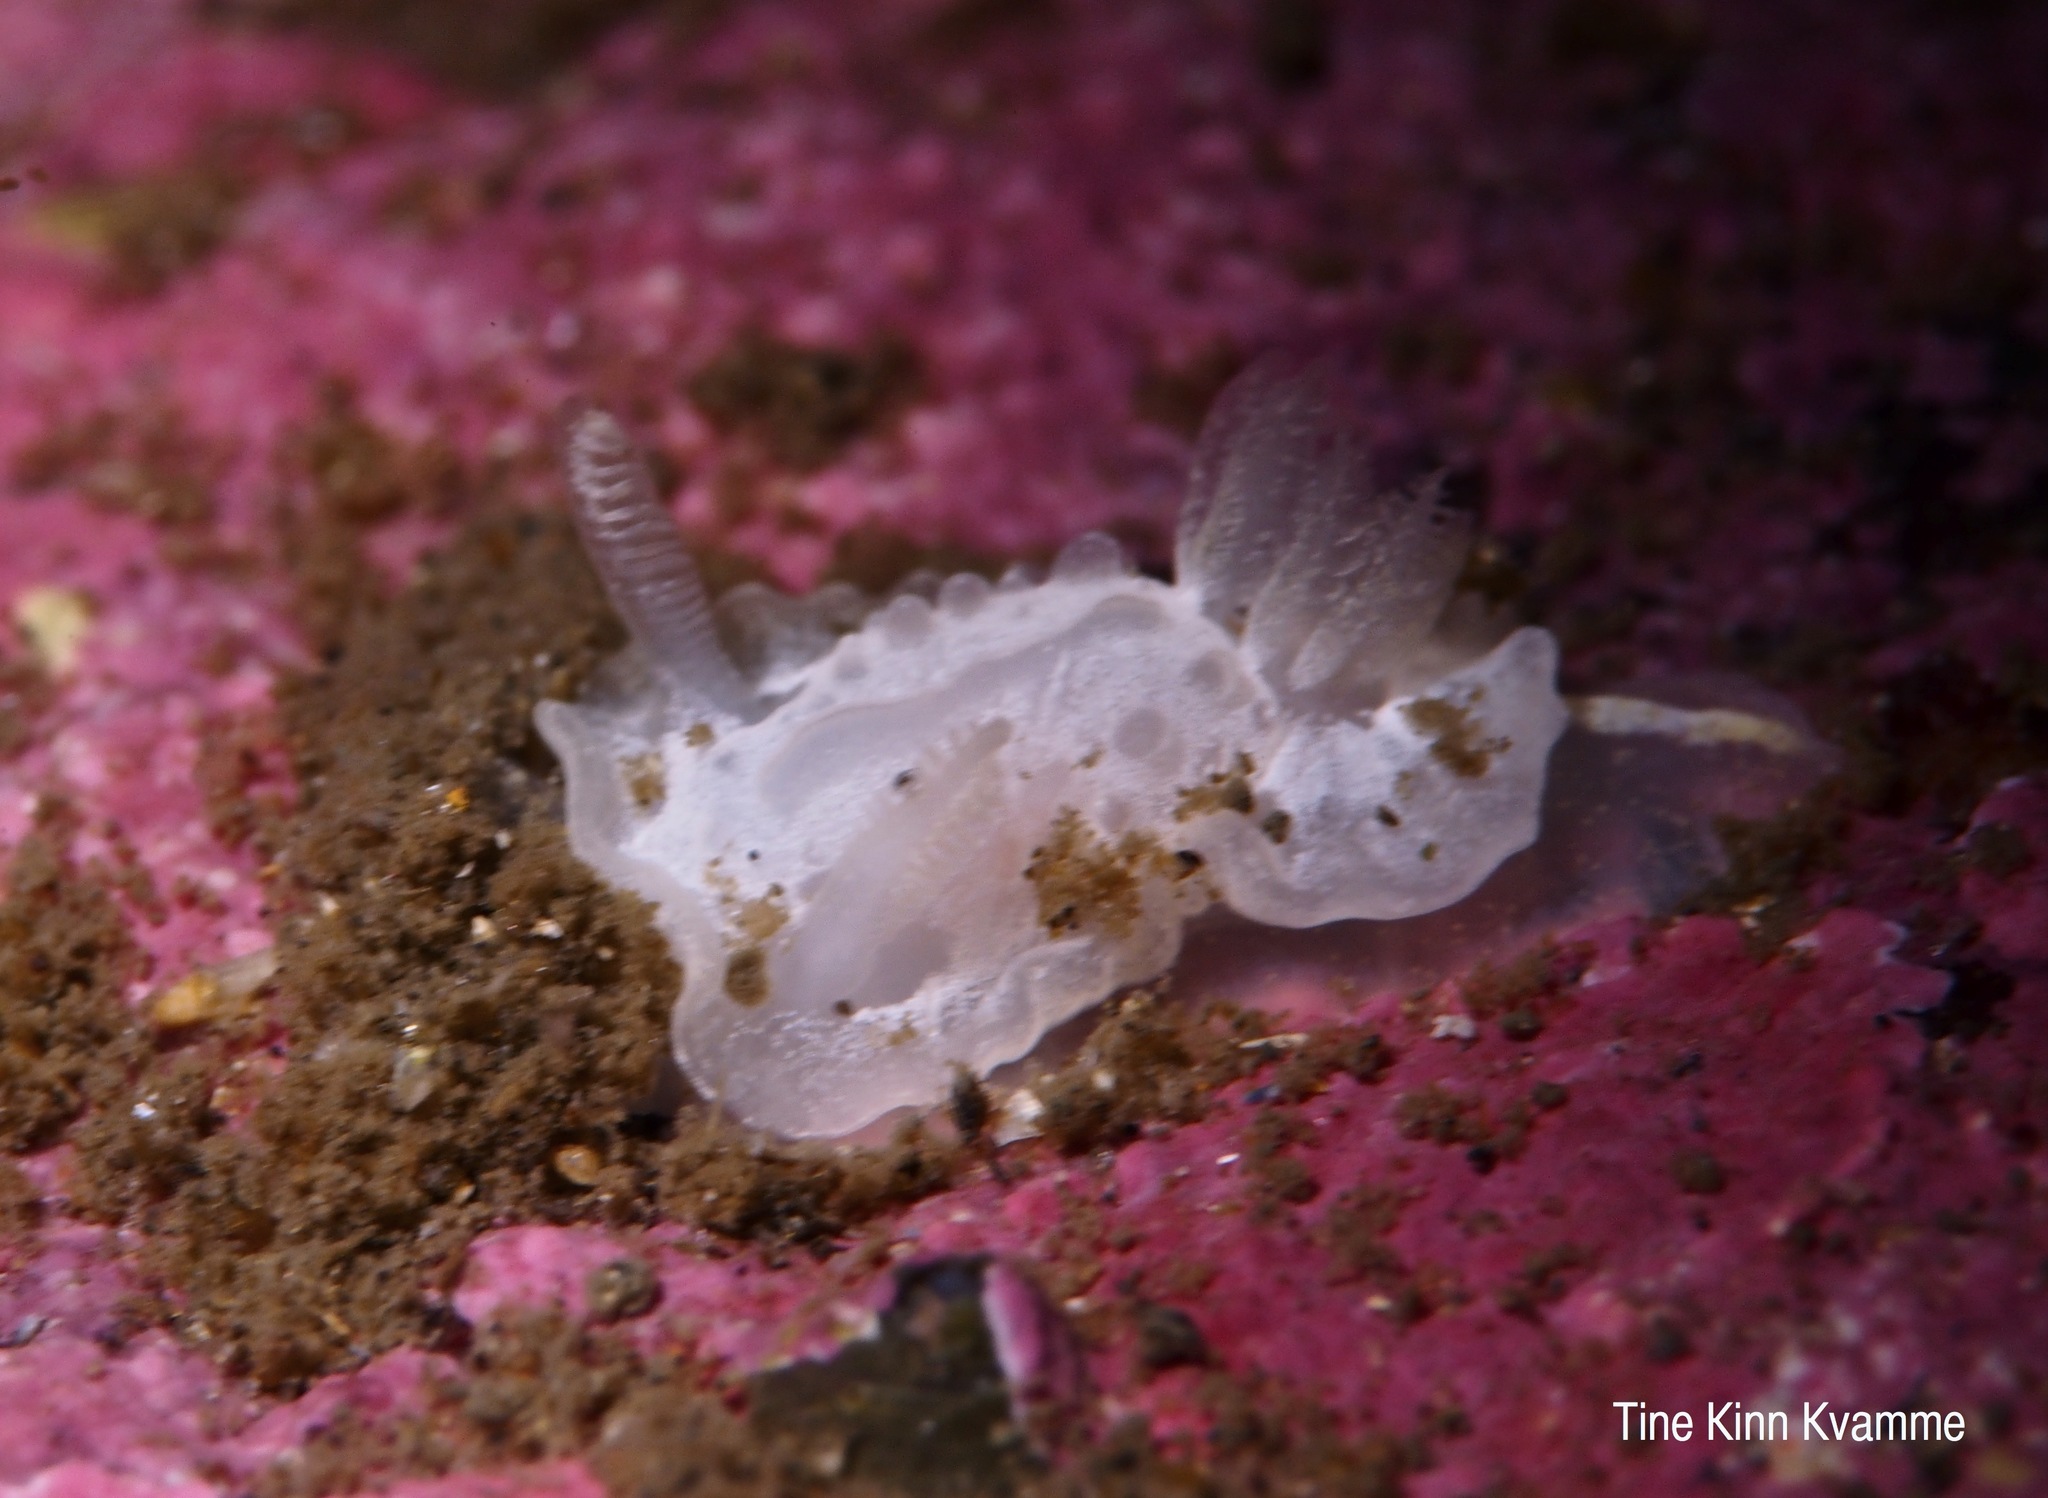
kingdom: Animalia
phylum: Mollusca
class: Gastropoda
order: Nudibranchia
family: Goniodorididae
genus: Okenia
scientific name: Okenia
